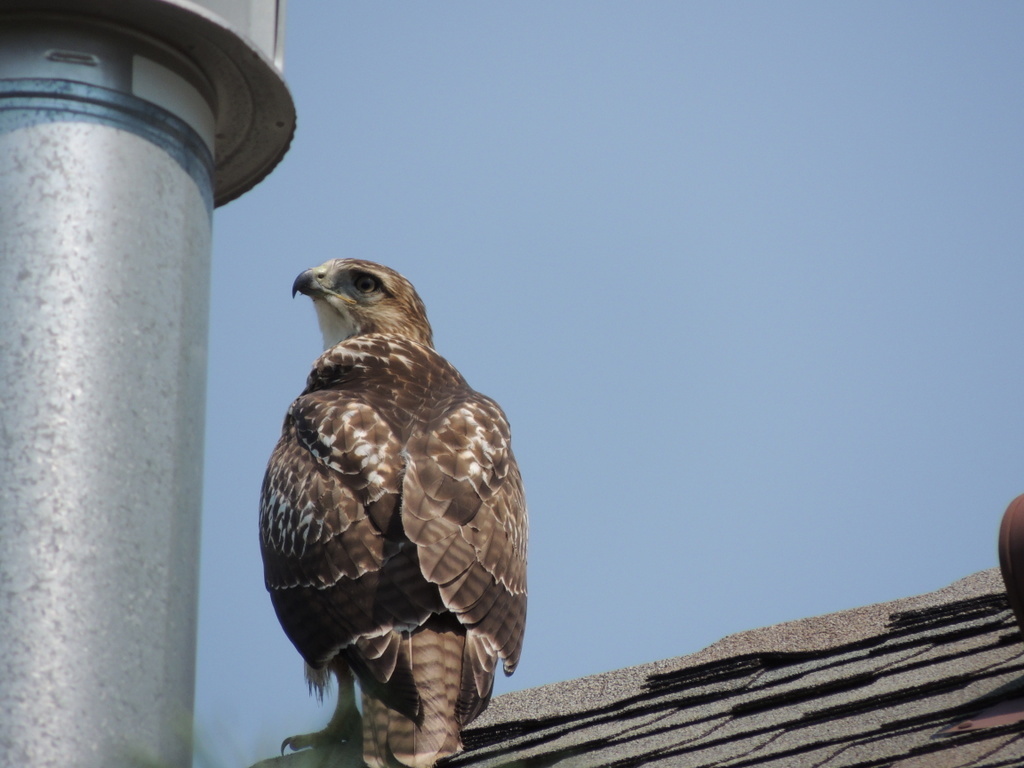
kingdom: Animalia
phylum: Chordata
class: Aves
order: Accipitriformes
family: Accipitridae
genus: Buteo
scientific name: Buteo jamaicensis
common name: Red-tailed hawk
